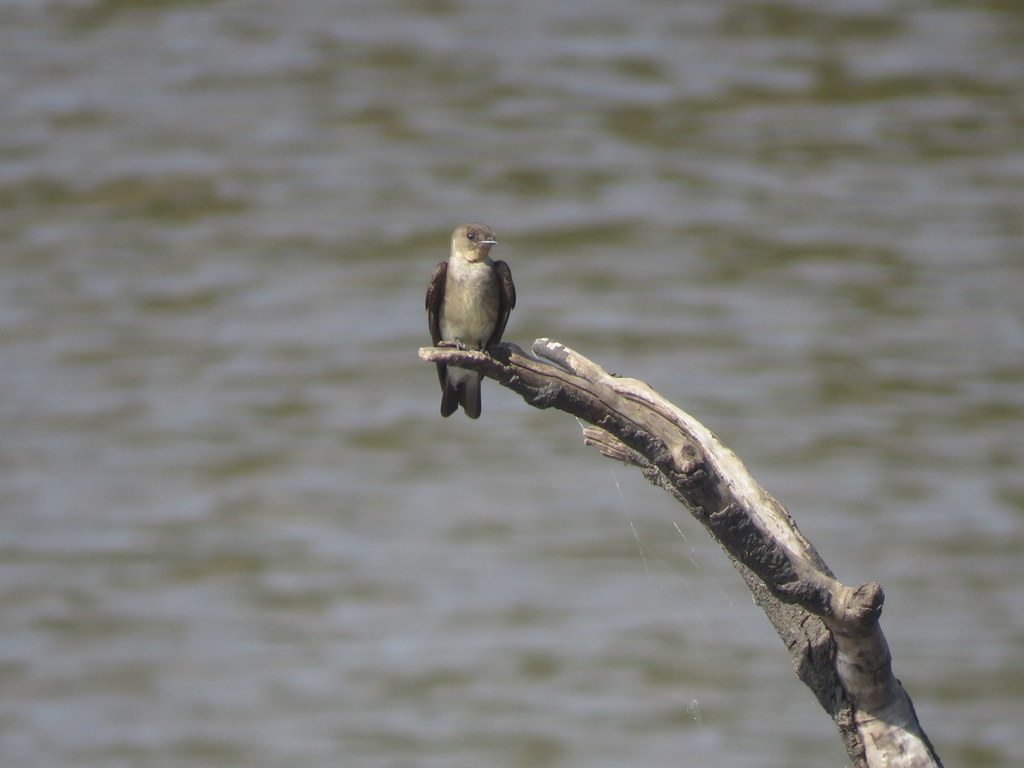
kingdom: Animalia
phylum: Chordata
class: Aves
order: Passeriformes
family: Hirundinidae
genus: Stelgidopteryx
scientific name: Stelgidopteryx ruficollis
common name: Southern rough-winged swallow
